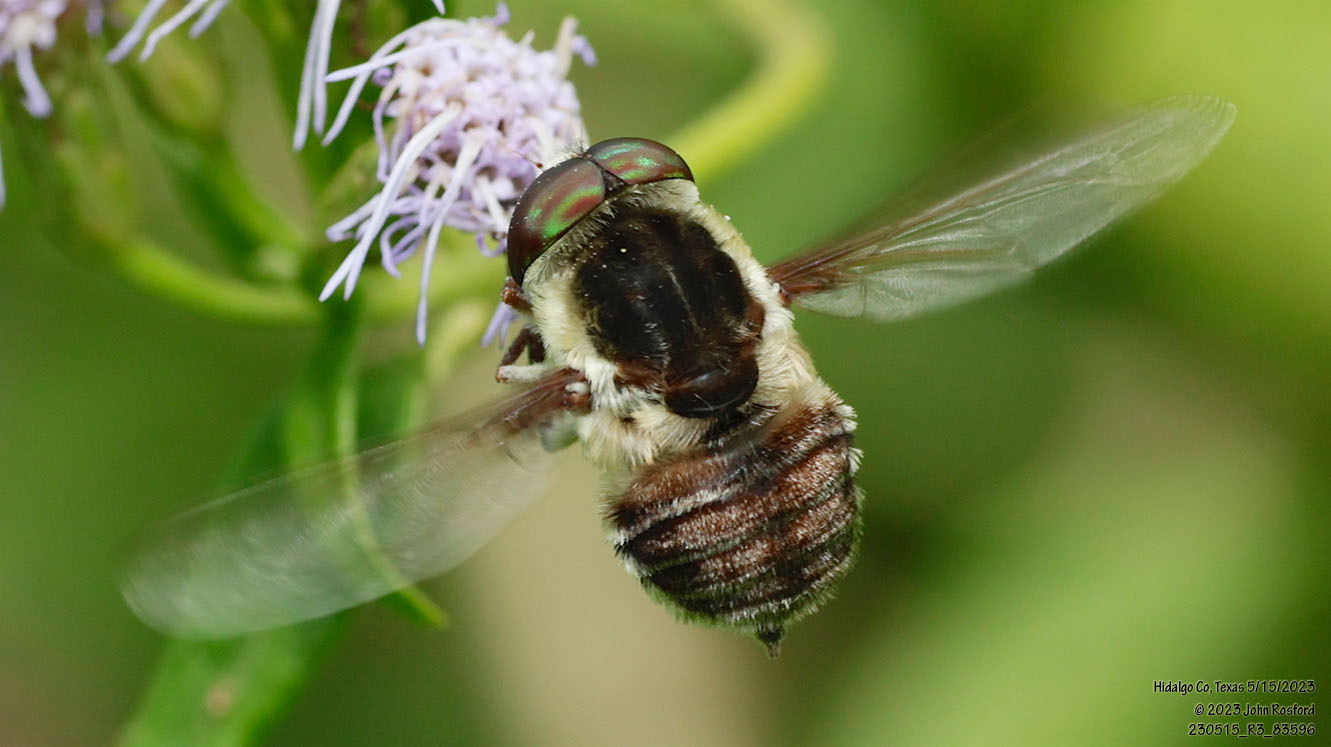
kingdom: Animalia
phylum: Arthropoda
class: Insecta
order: Diptera
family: Nemestrinidae
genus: Neorhynchocephalus
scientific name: Neorhynchocephalus volaticus
